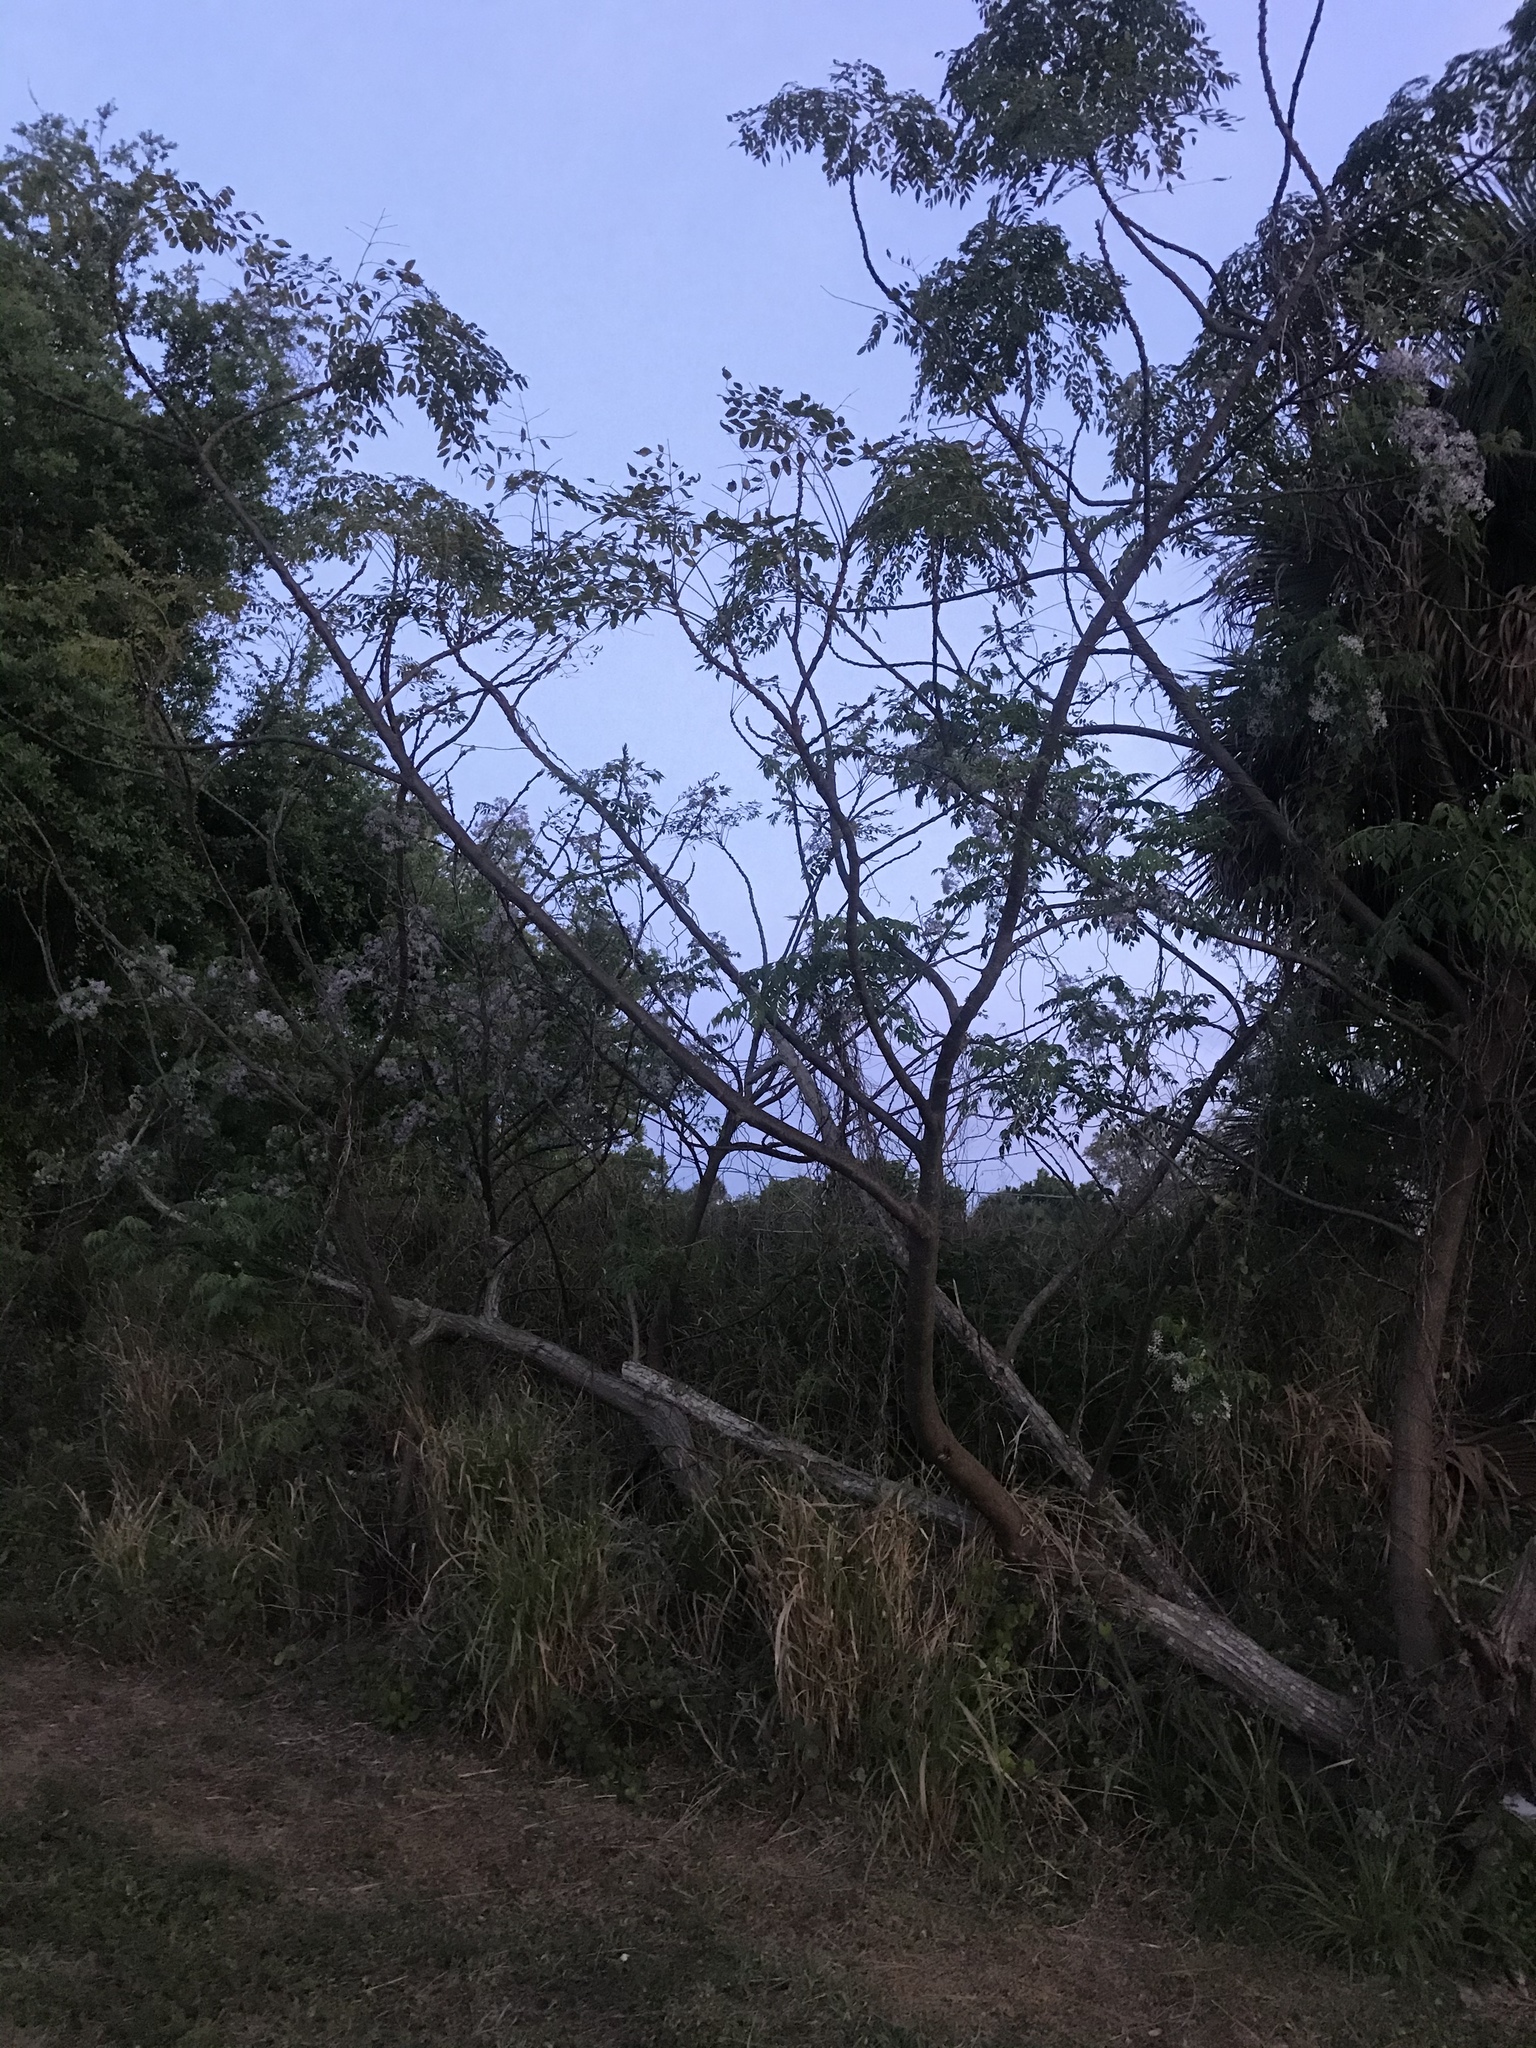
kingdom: Plantae
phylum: Tracheophyta
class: Magnoliopsida
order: Sapindales
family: Meliaceae
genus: Melia
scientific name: Melia azedarach
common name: Chinaberrytree
